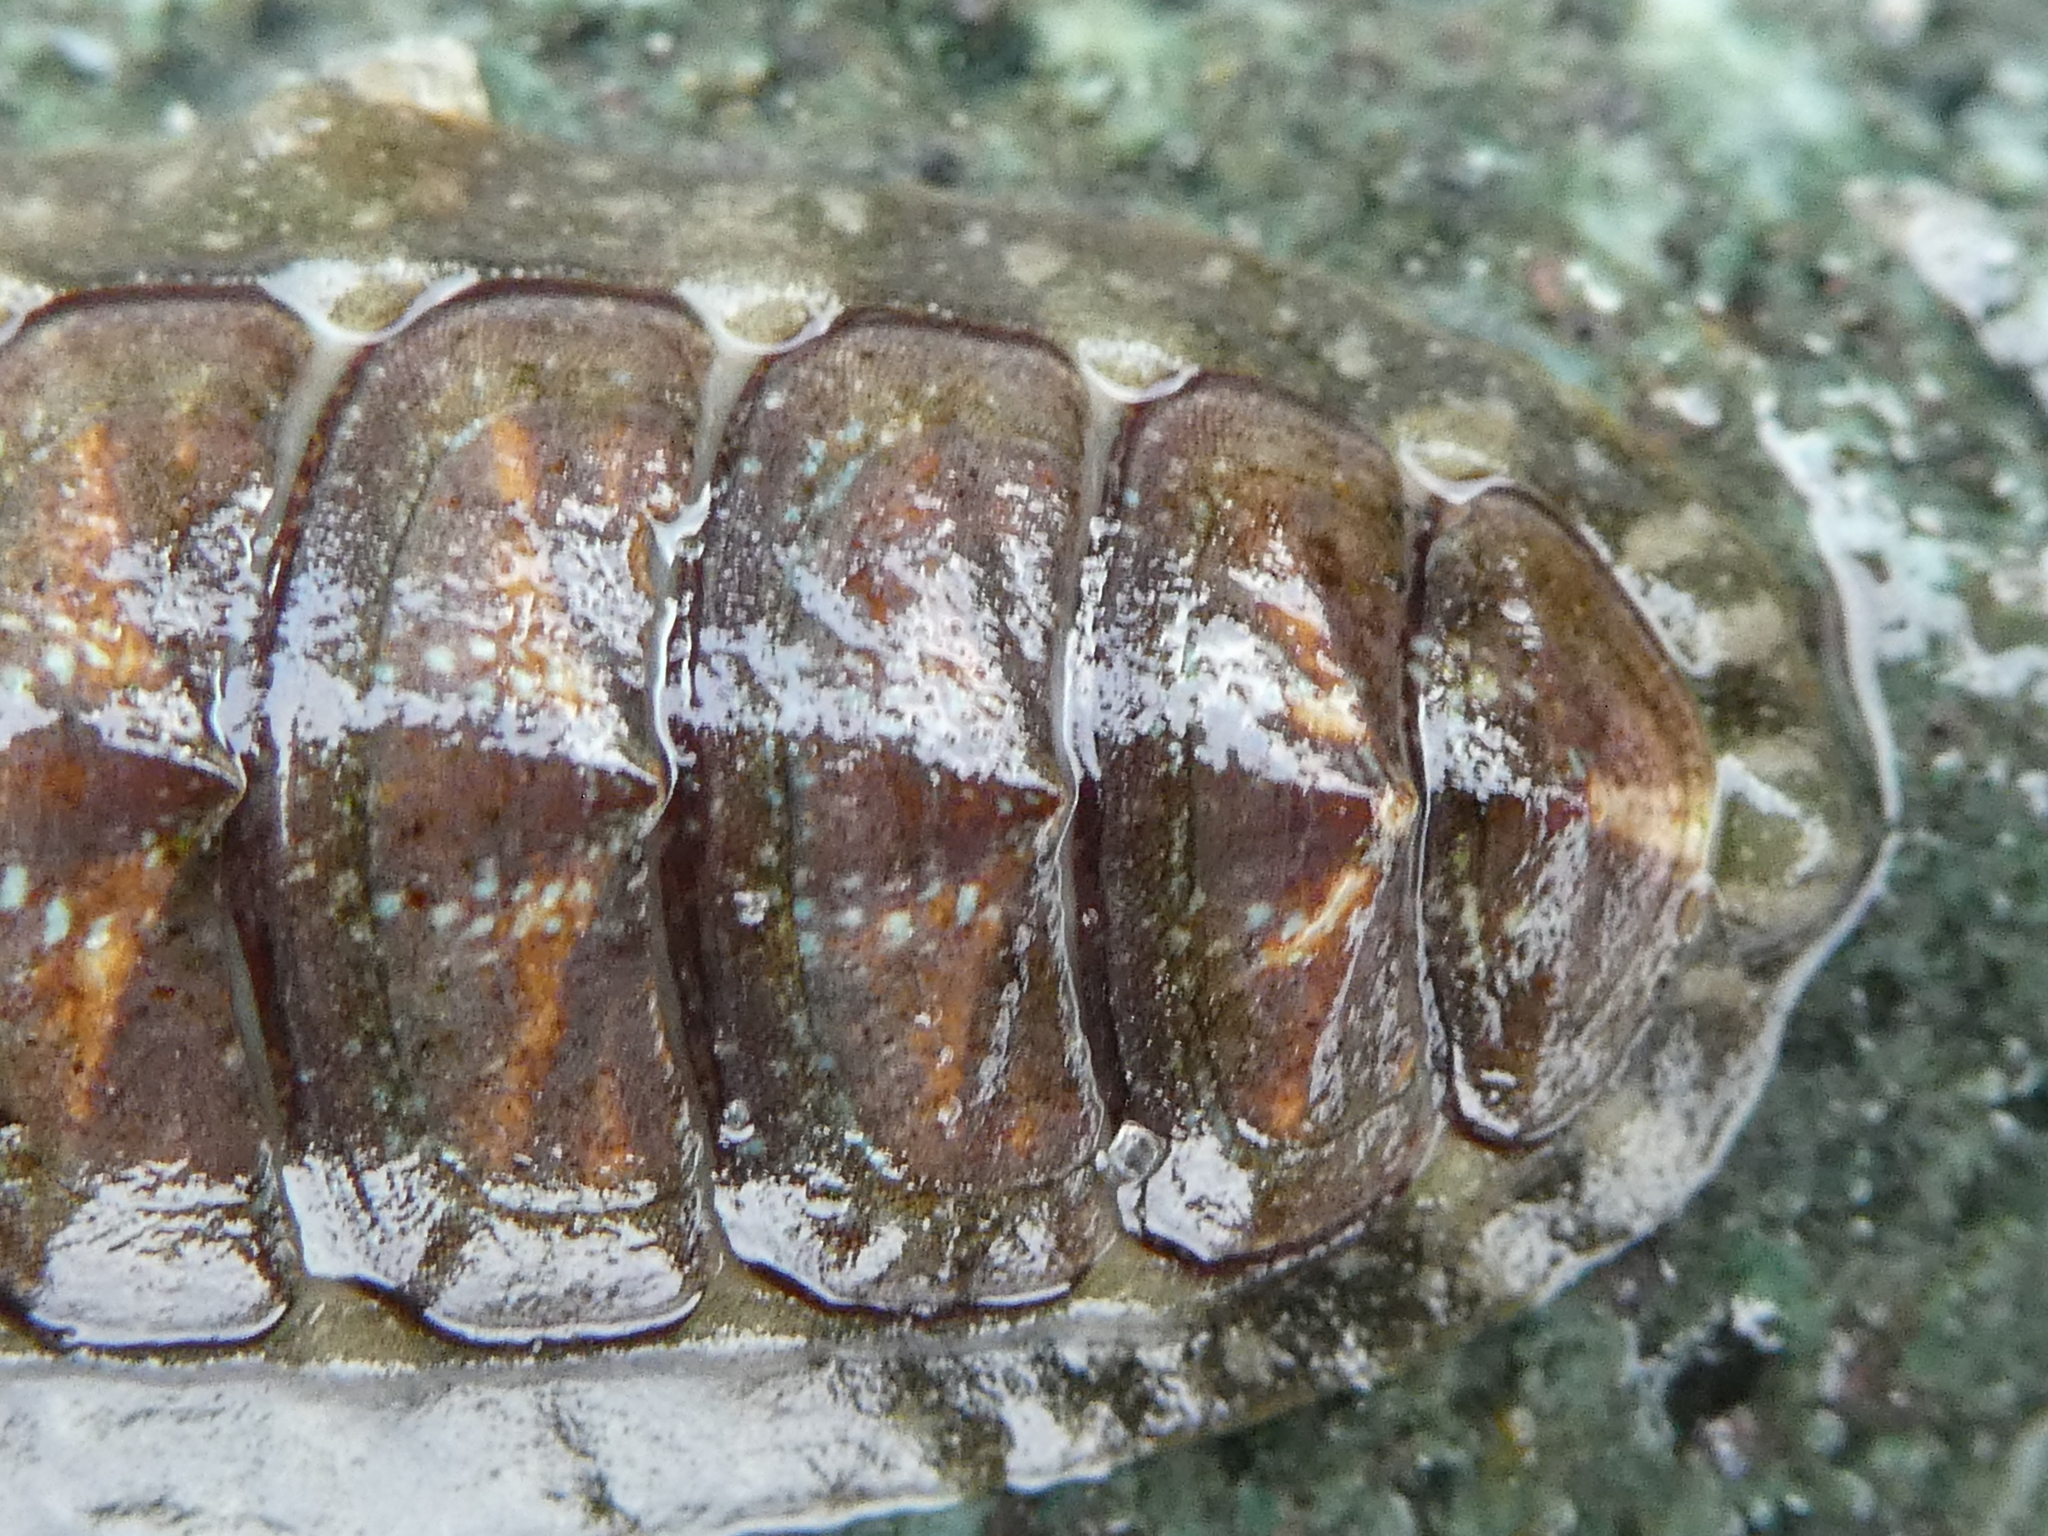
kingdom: Animalia
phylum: Mollusca
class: Polyplacophora
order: Chitonida
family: Tonicellidae
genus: Cyanoplax
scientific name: Cyanoplax dentiens
